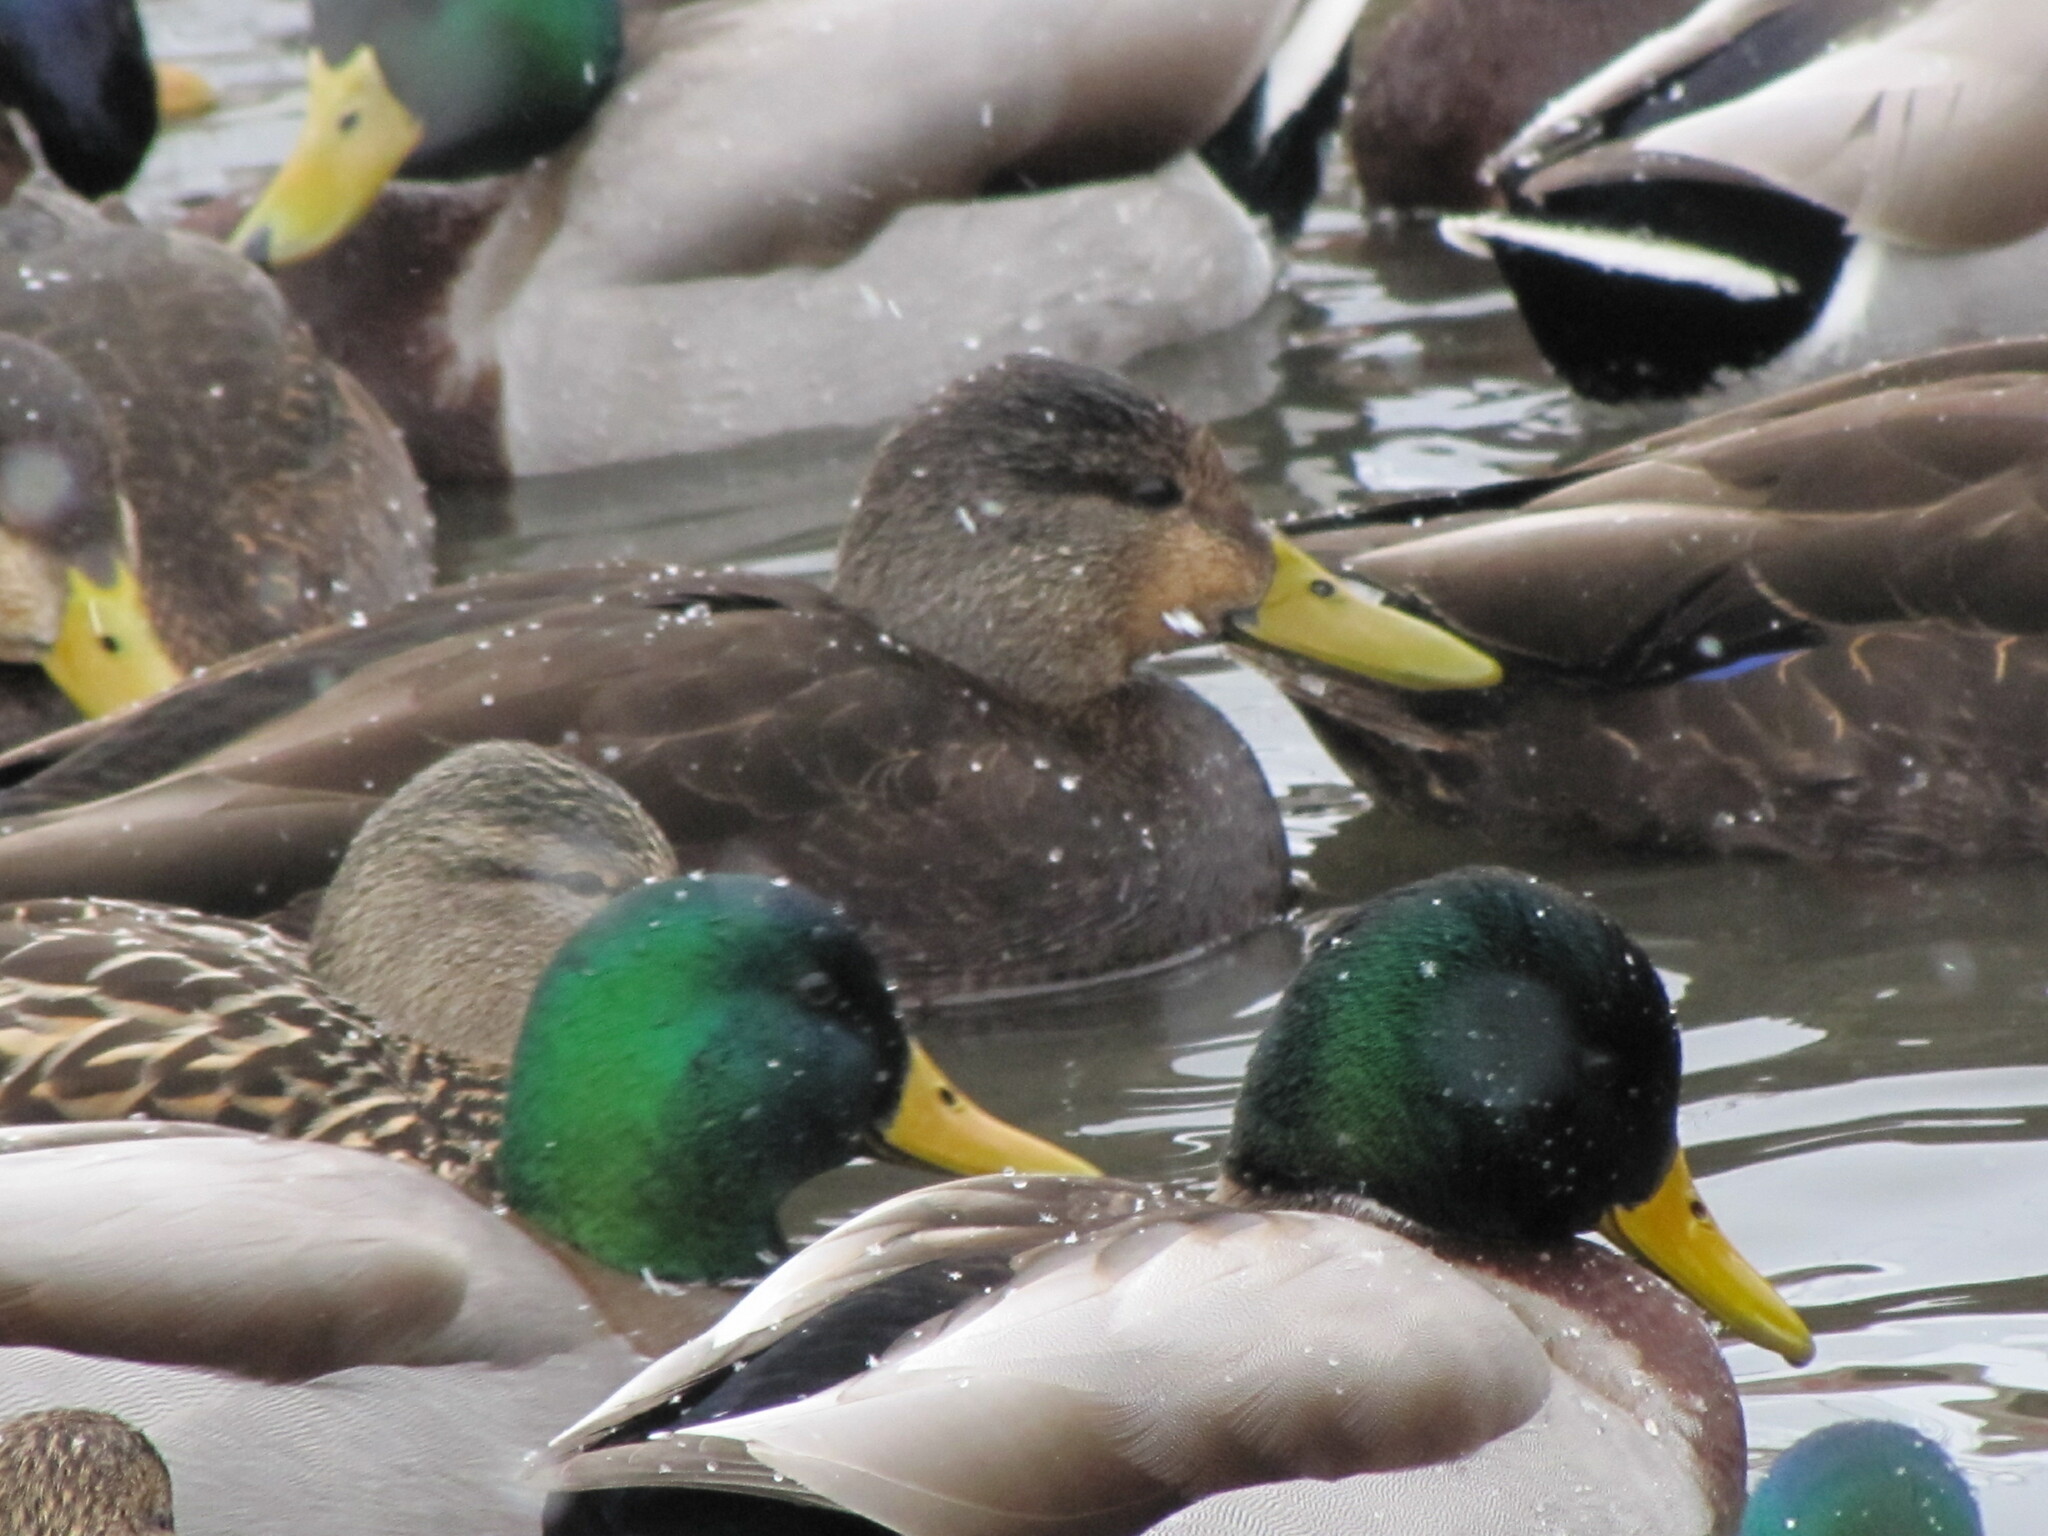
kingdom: Animalia
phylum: Chordata
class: Aves
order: Anseriformes
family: Anatidae
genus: Anas
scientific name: Anas rubripes
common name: American black duck
